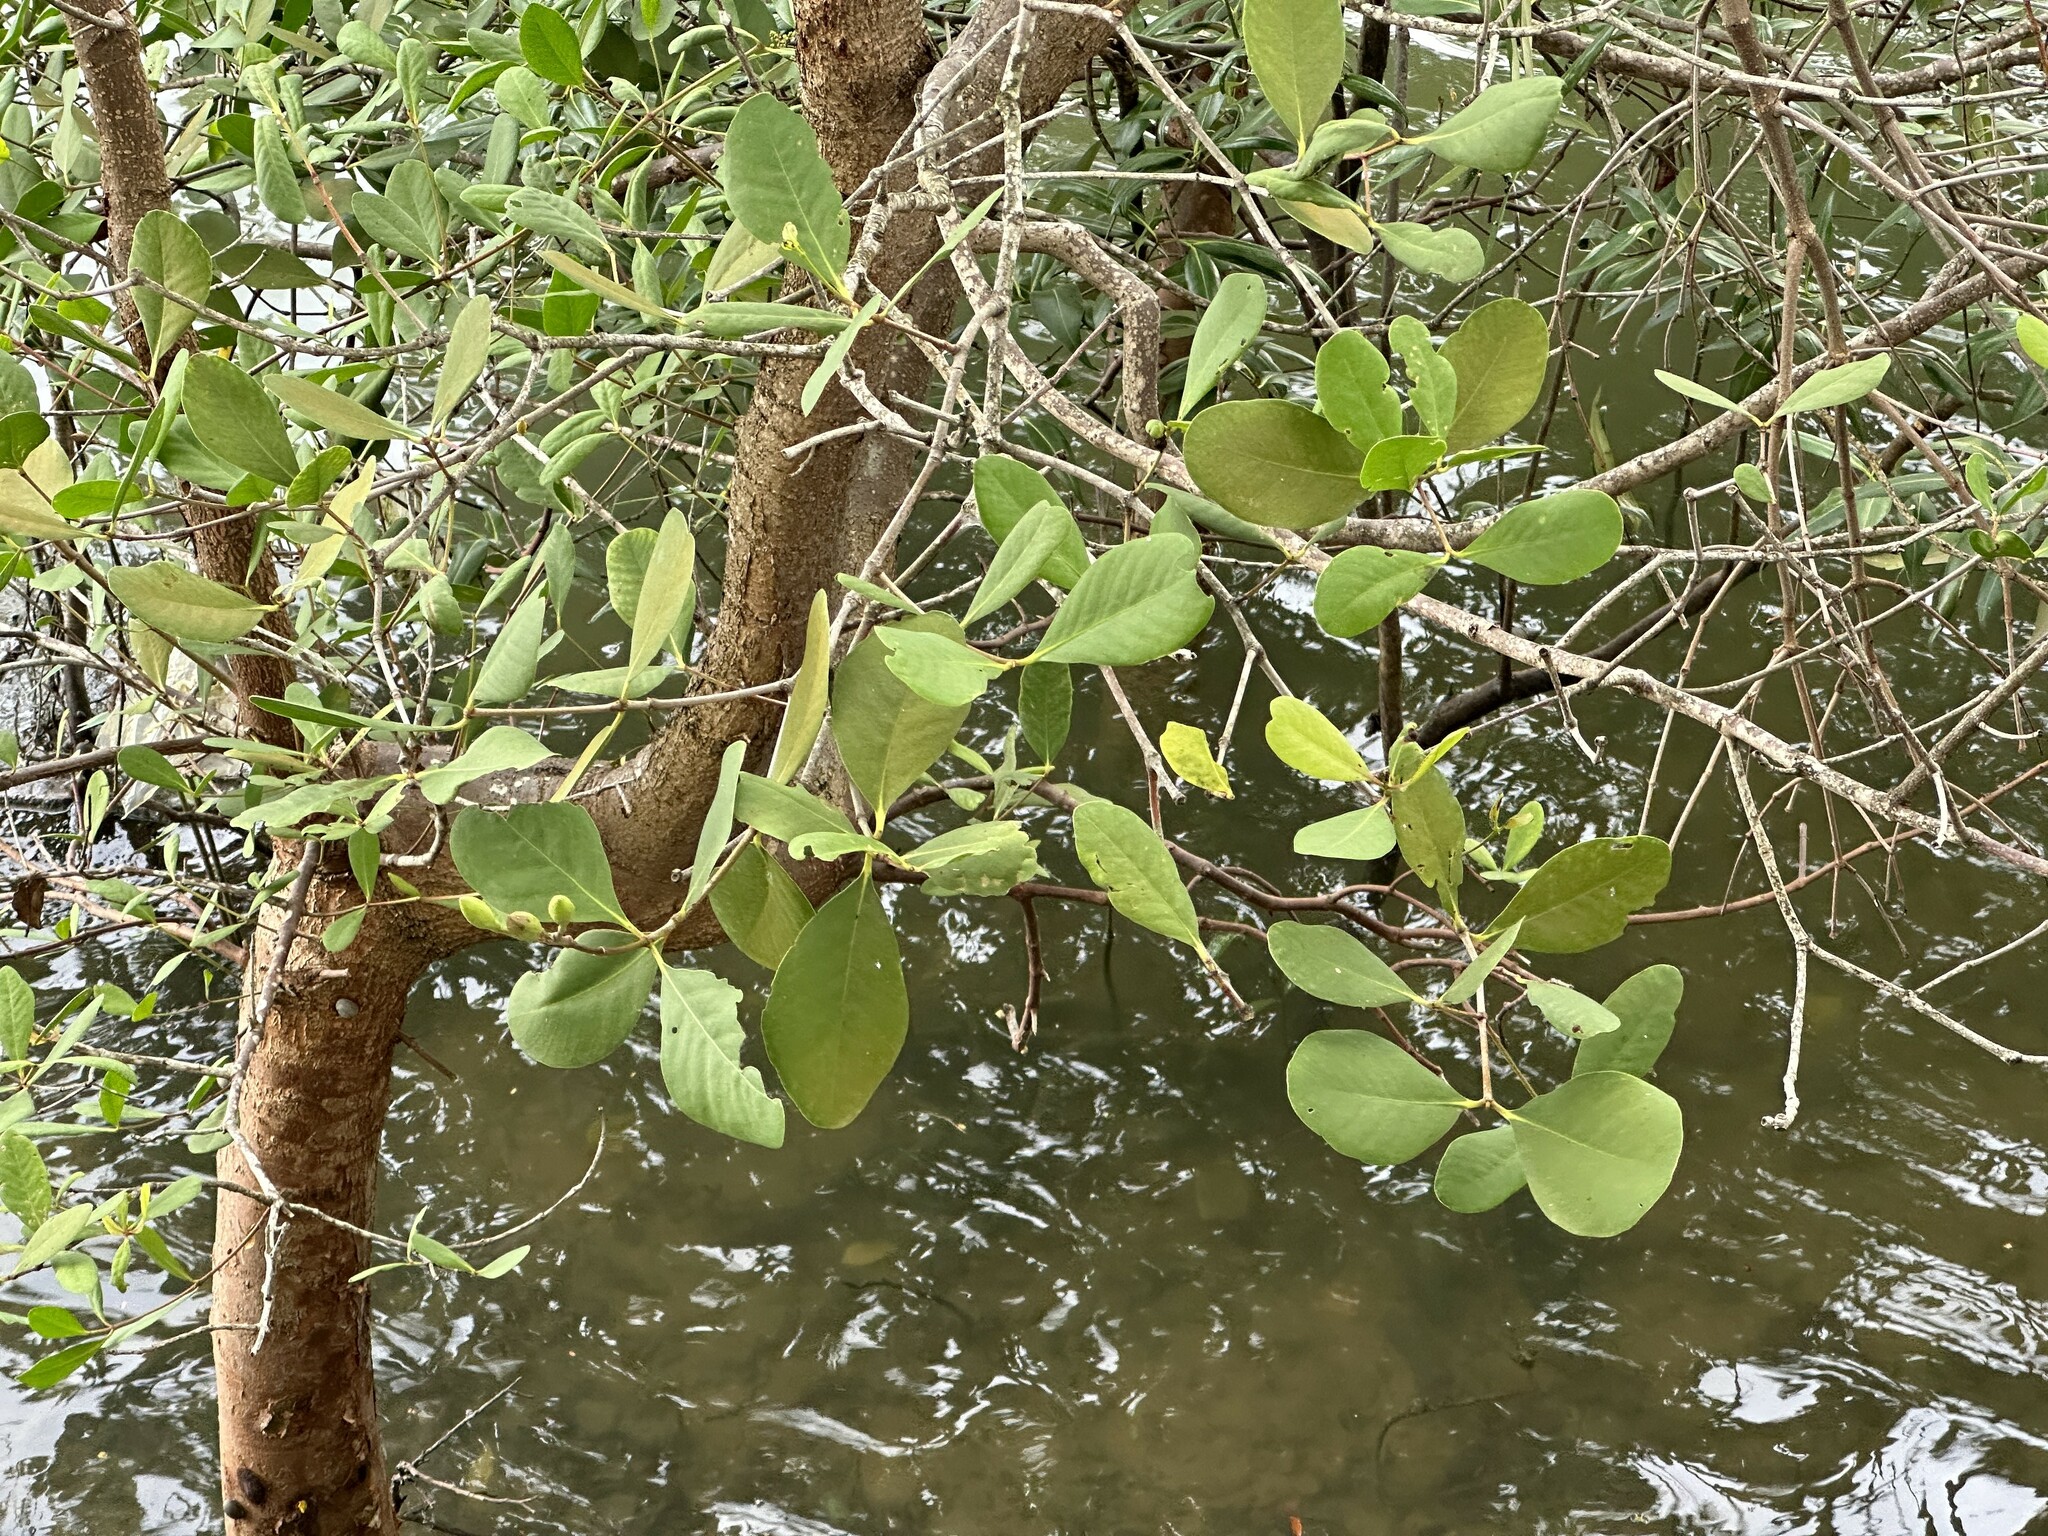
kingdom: Plantae
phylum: Tracheophyta
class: Magnoliopsida
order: Myrtales
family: Lythraceae
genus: Sonneratia
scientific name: Sonneratia alba
